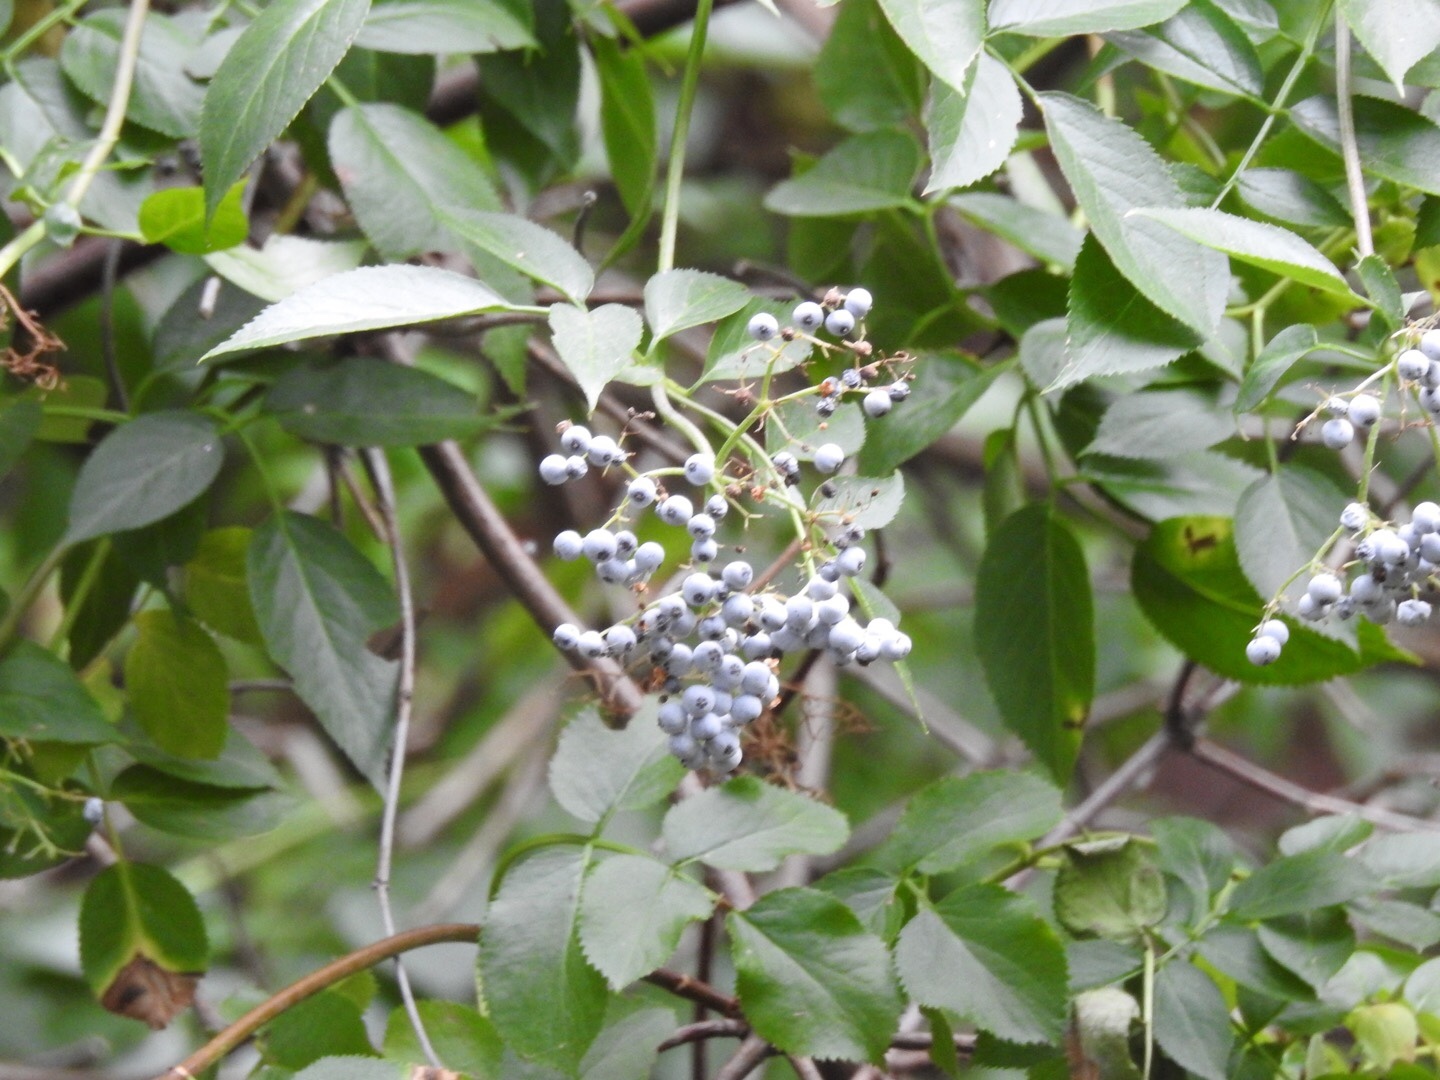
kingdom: Plantae
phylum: Tracheophyta
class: Magnoliopsida
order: Dipsacales
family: Viburnaceae
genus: Sambucus
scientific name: Sambucus cerulea
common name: Blue elder
